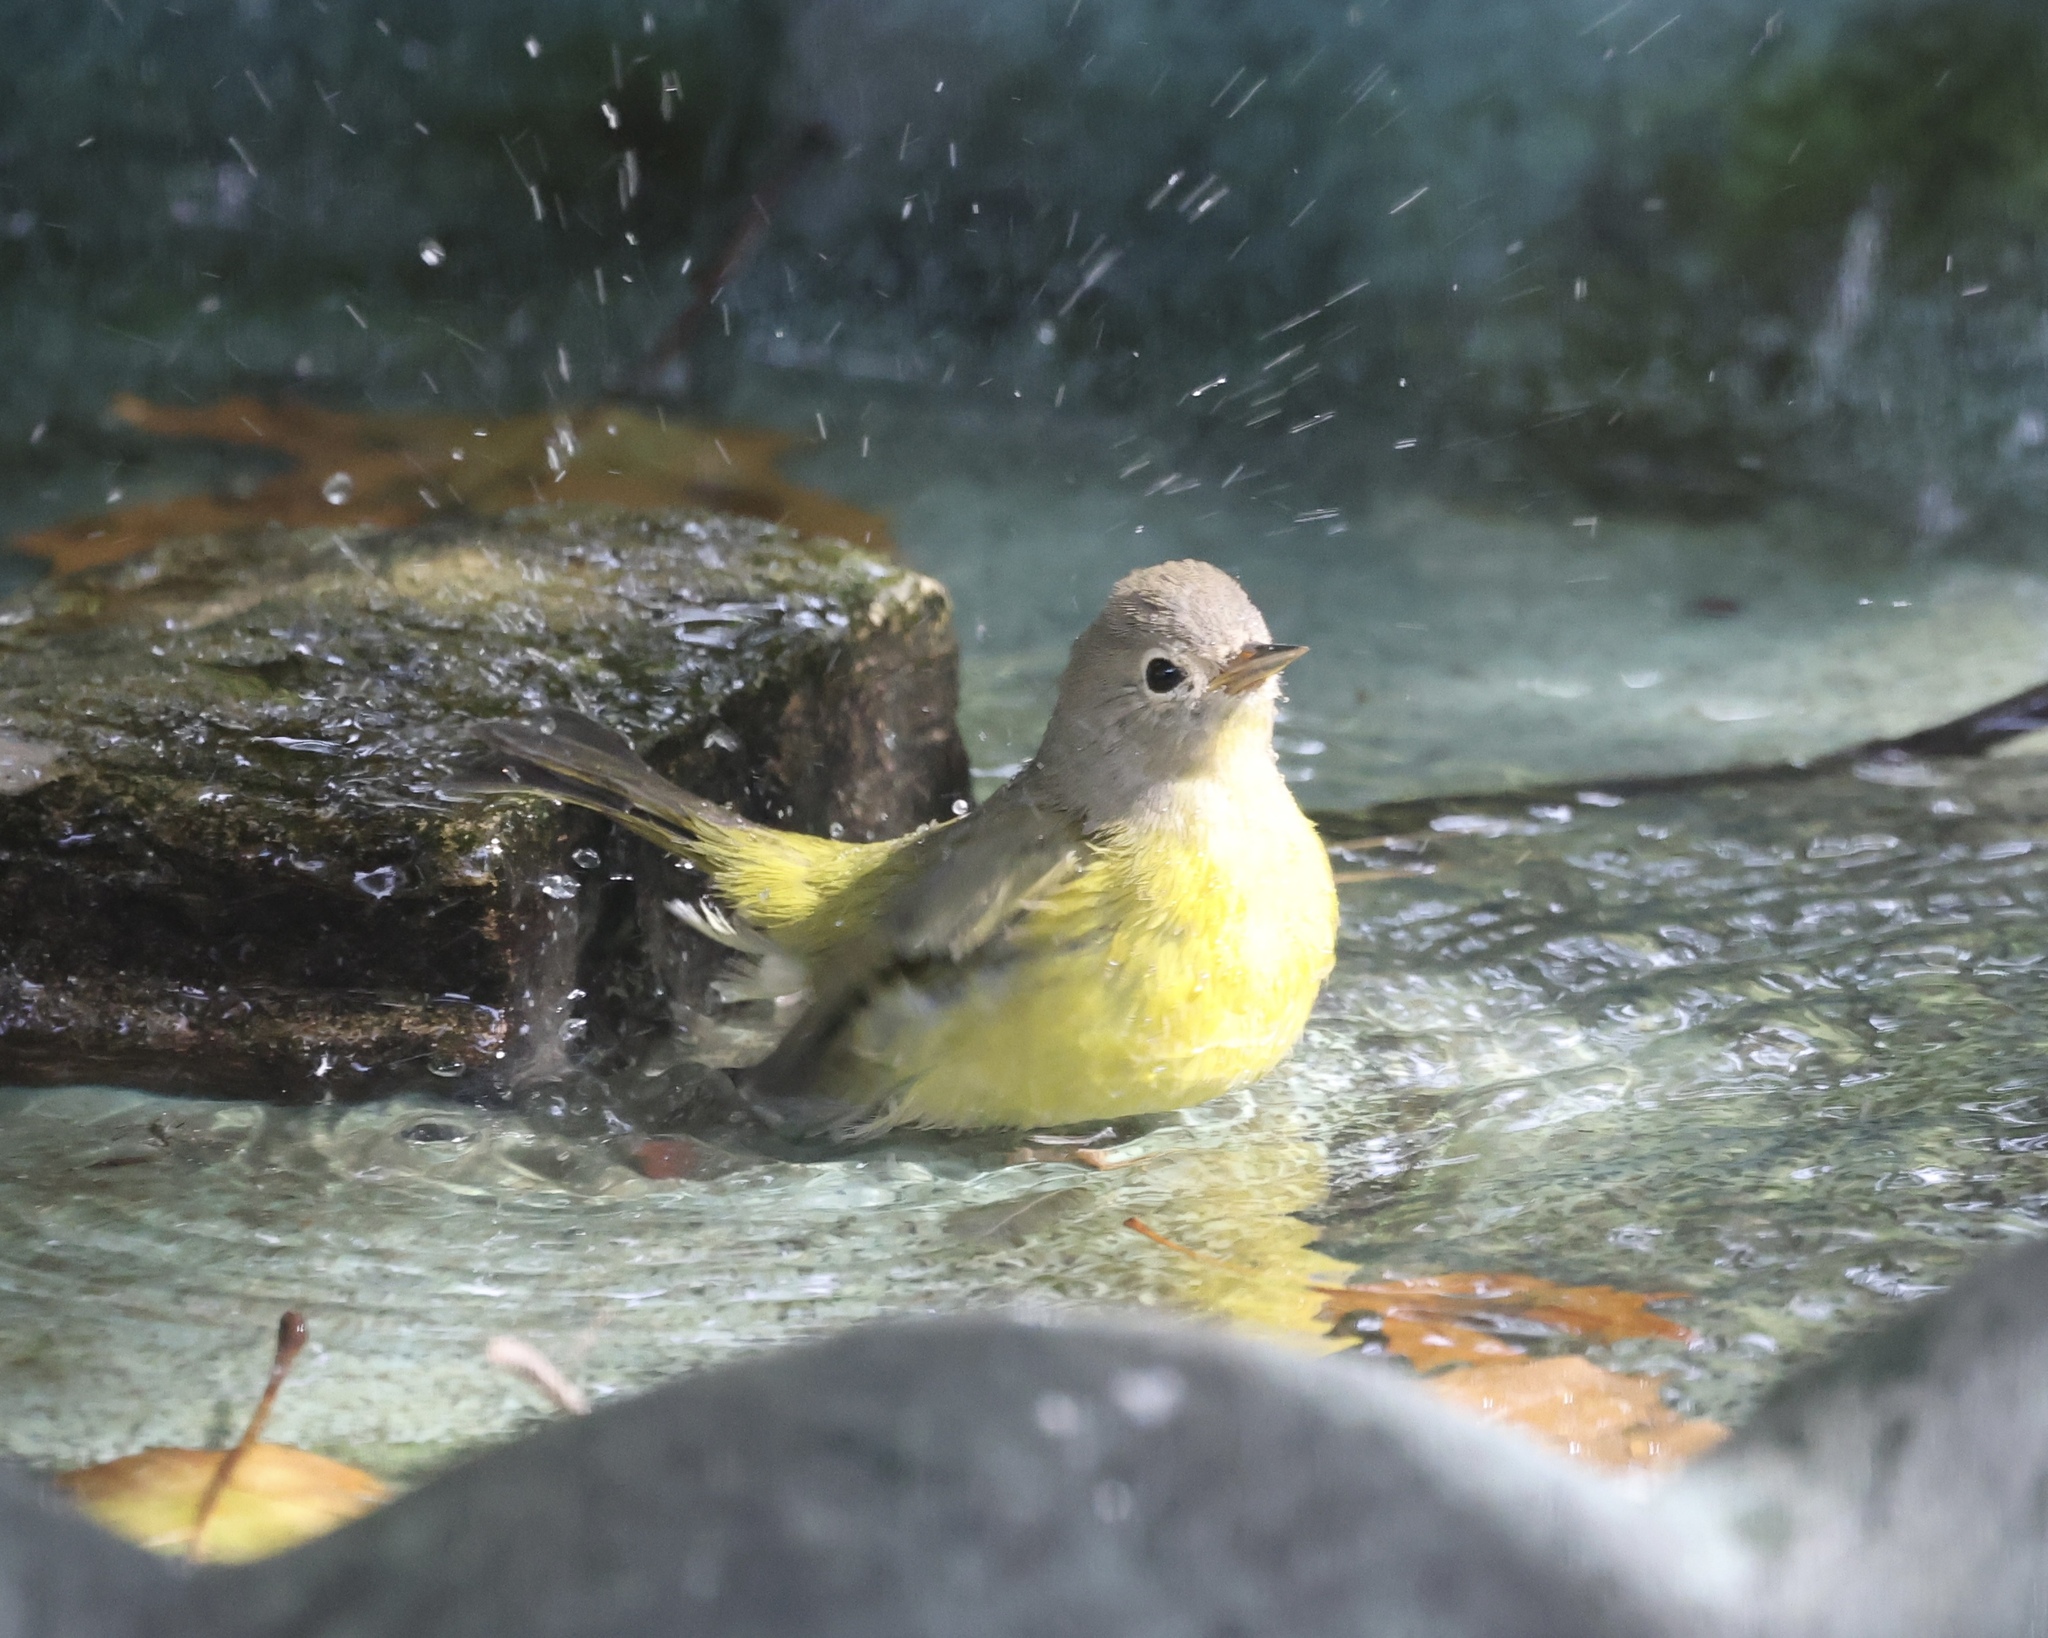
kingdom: Animalia
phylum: Chordata
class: Aves
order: Passeriformes
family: Parulidae
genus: Leiothlypis
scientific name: Leiothlypis ruficapilla
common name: Nashville warbler
